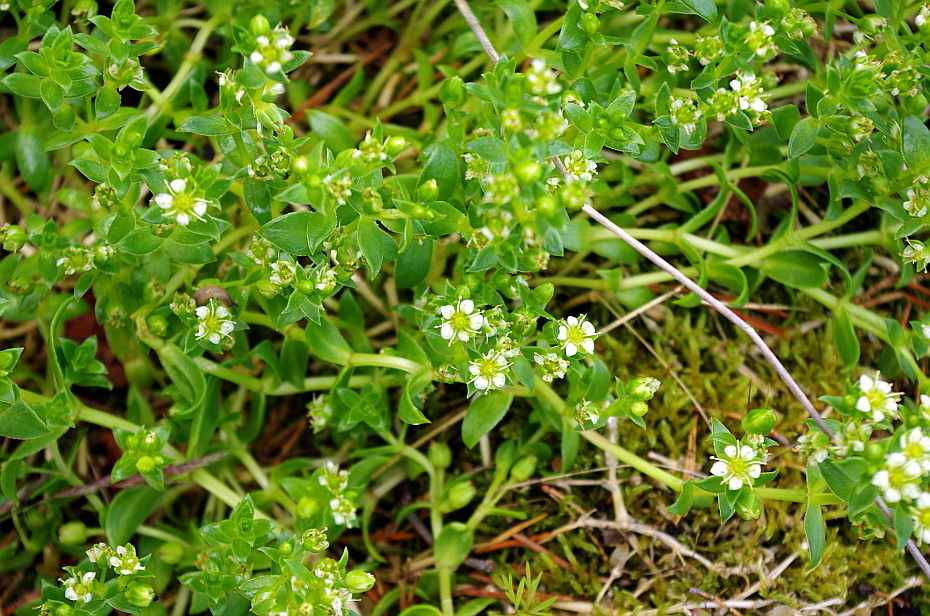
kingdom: Plantae
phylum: Tracheophyta
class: Magnoliopsida
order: Caryophyllales
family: Caryophyllaceae
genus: Honckenya
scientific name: Honckenya peploides
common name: Sea sandwort
